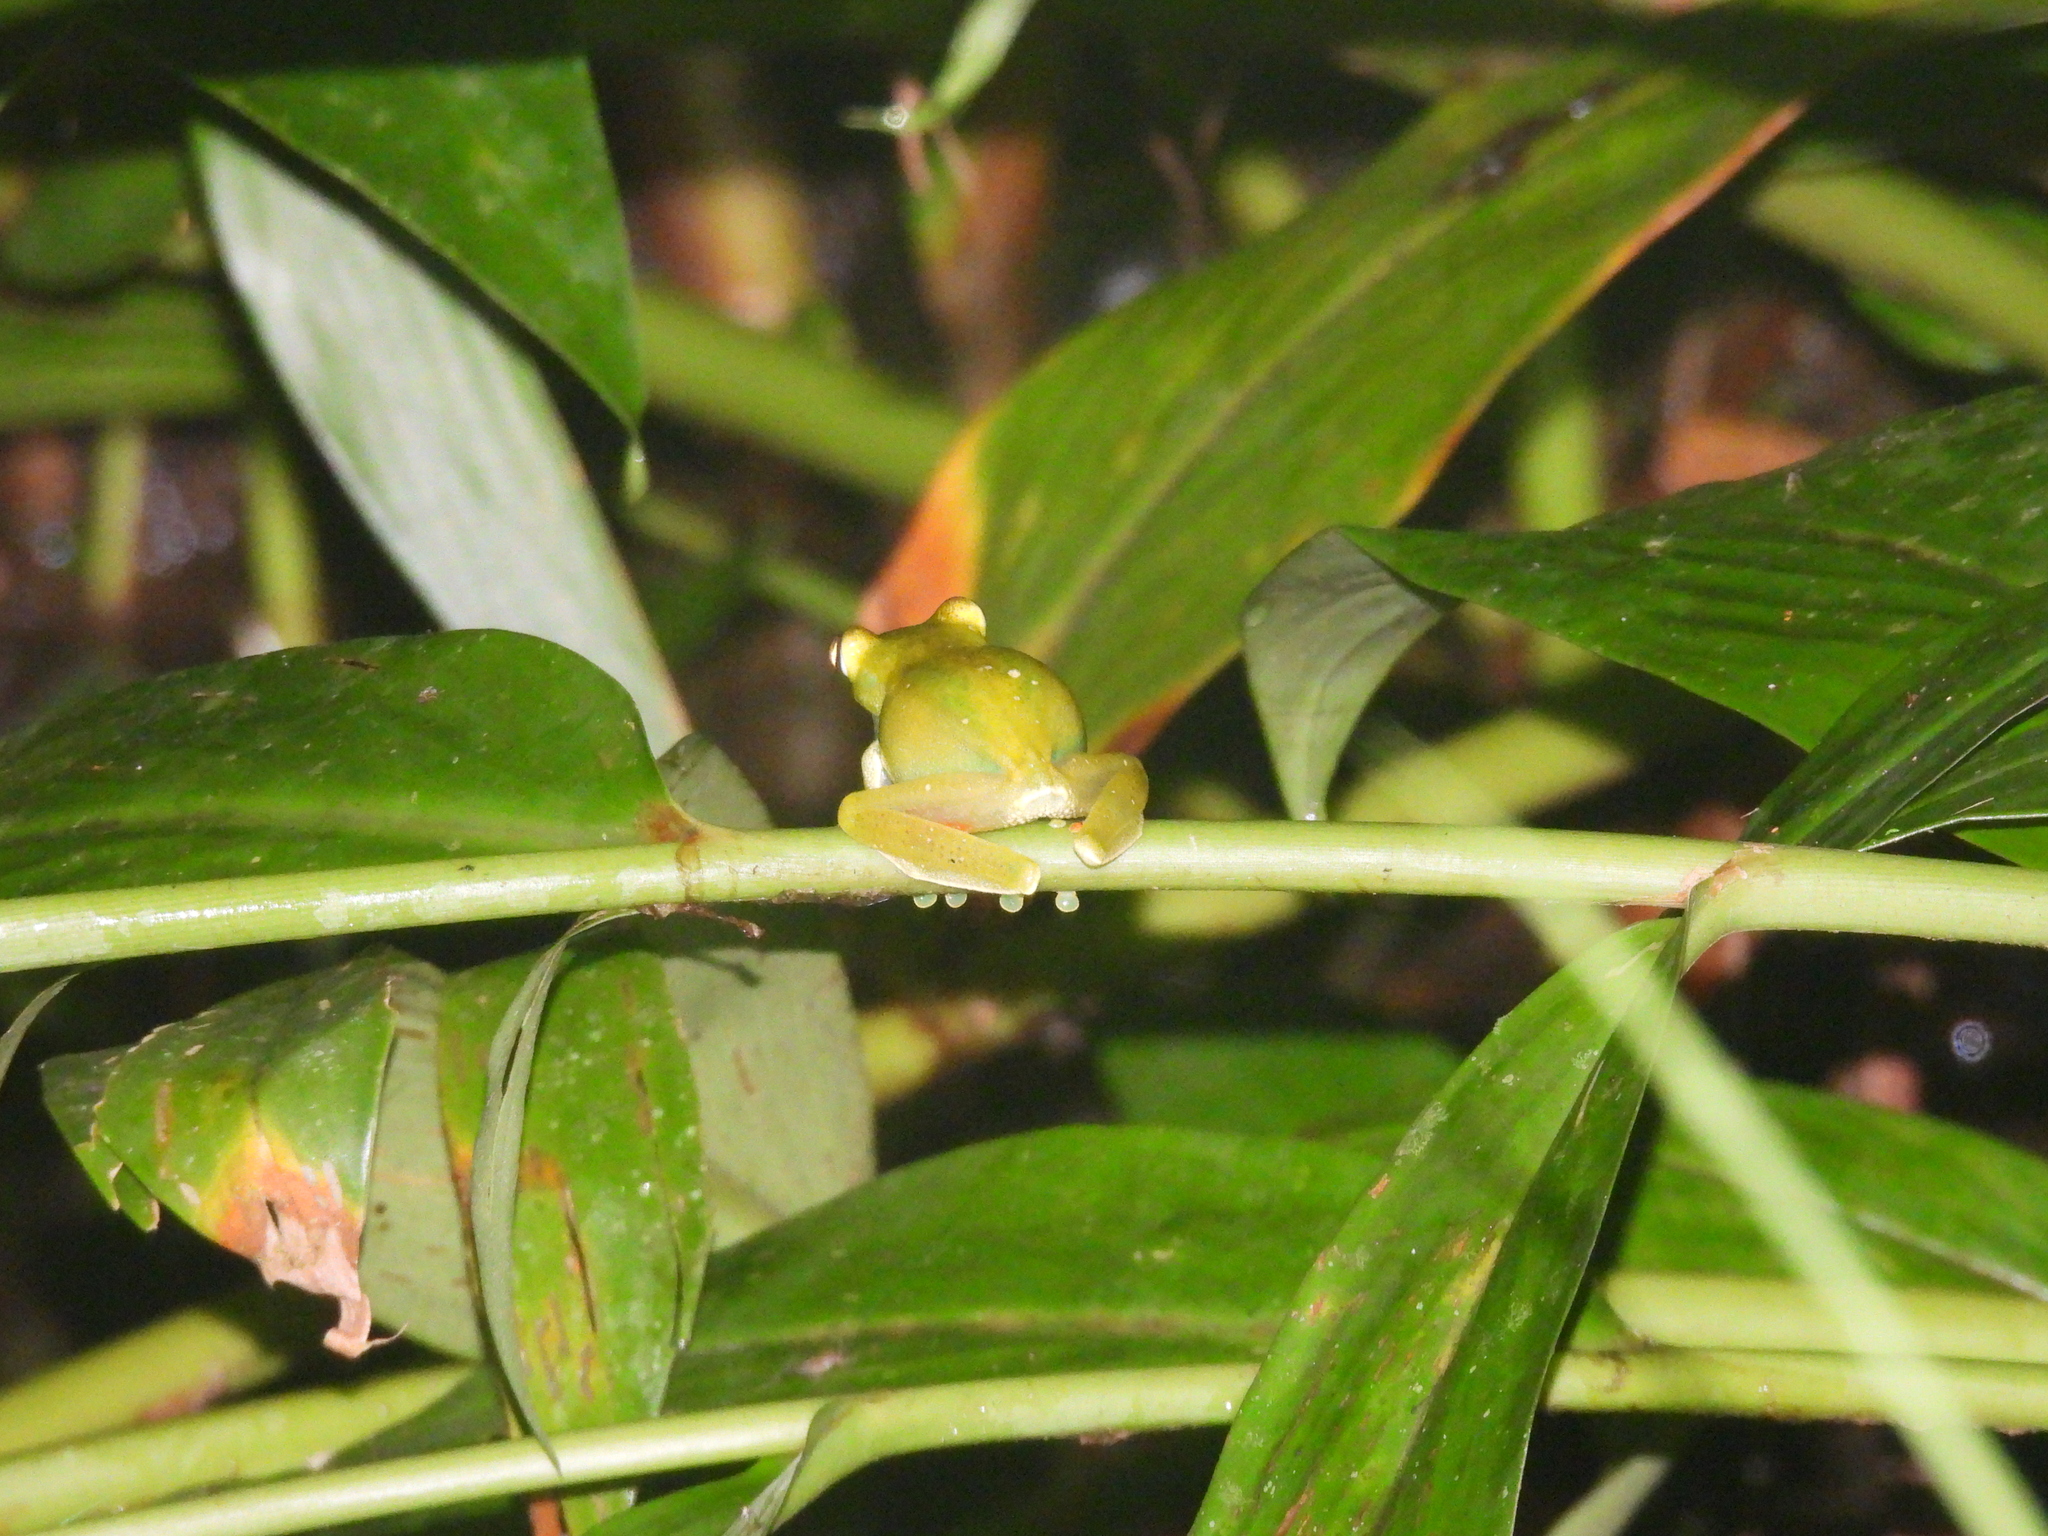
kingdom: Animalia
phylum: Chordata
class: Amphibia
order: Anura
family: Hylidae
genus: Boana
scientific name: Boana rufitela
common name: Canal zone treefrog
